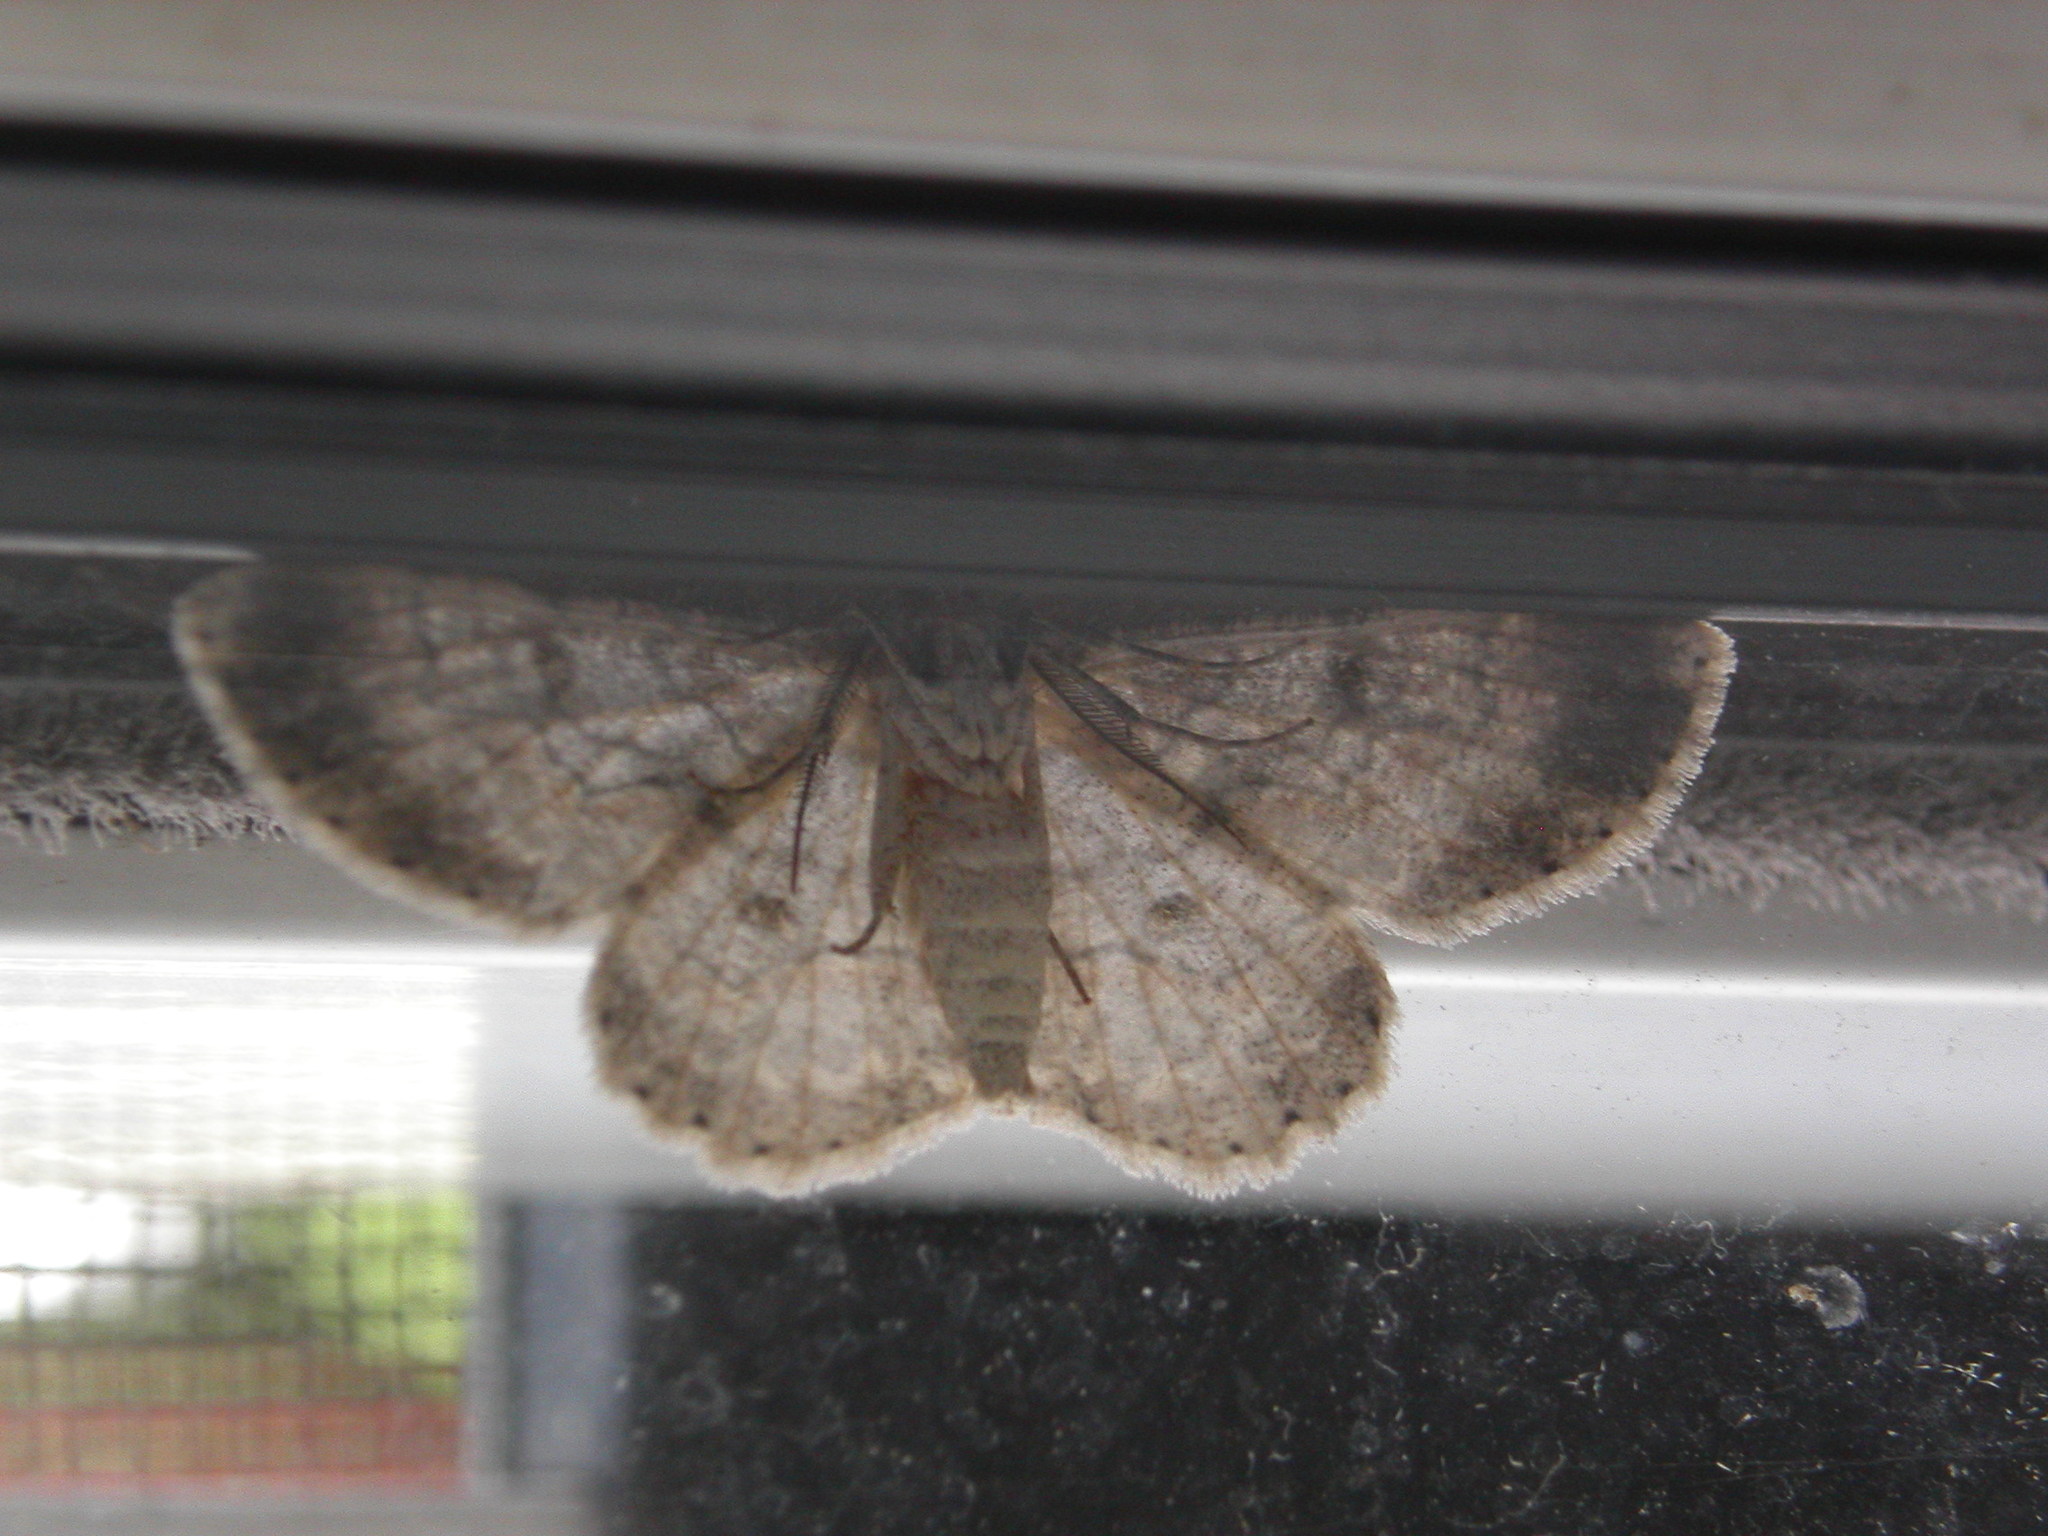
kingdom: Animalia
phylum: Arthropoda
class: Insecta
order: Lepidoptera
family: Geometridae
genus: Iridopsis
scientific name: Iridopsis defectaria
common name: Brown-shaded gray
